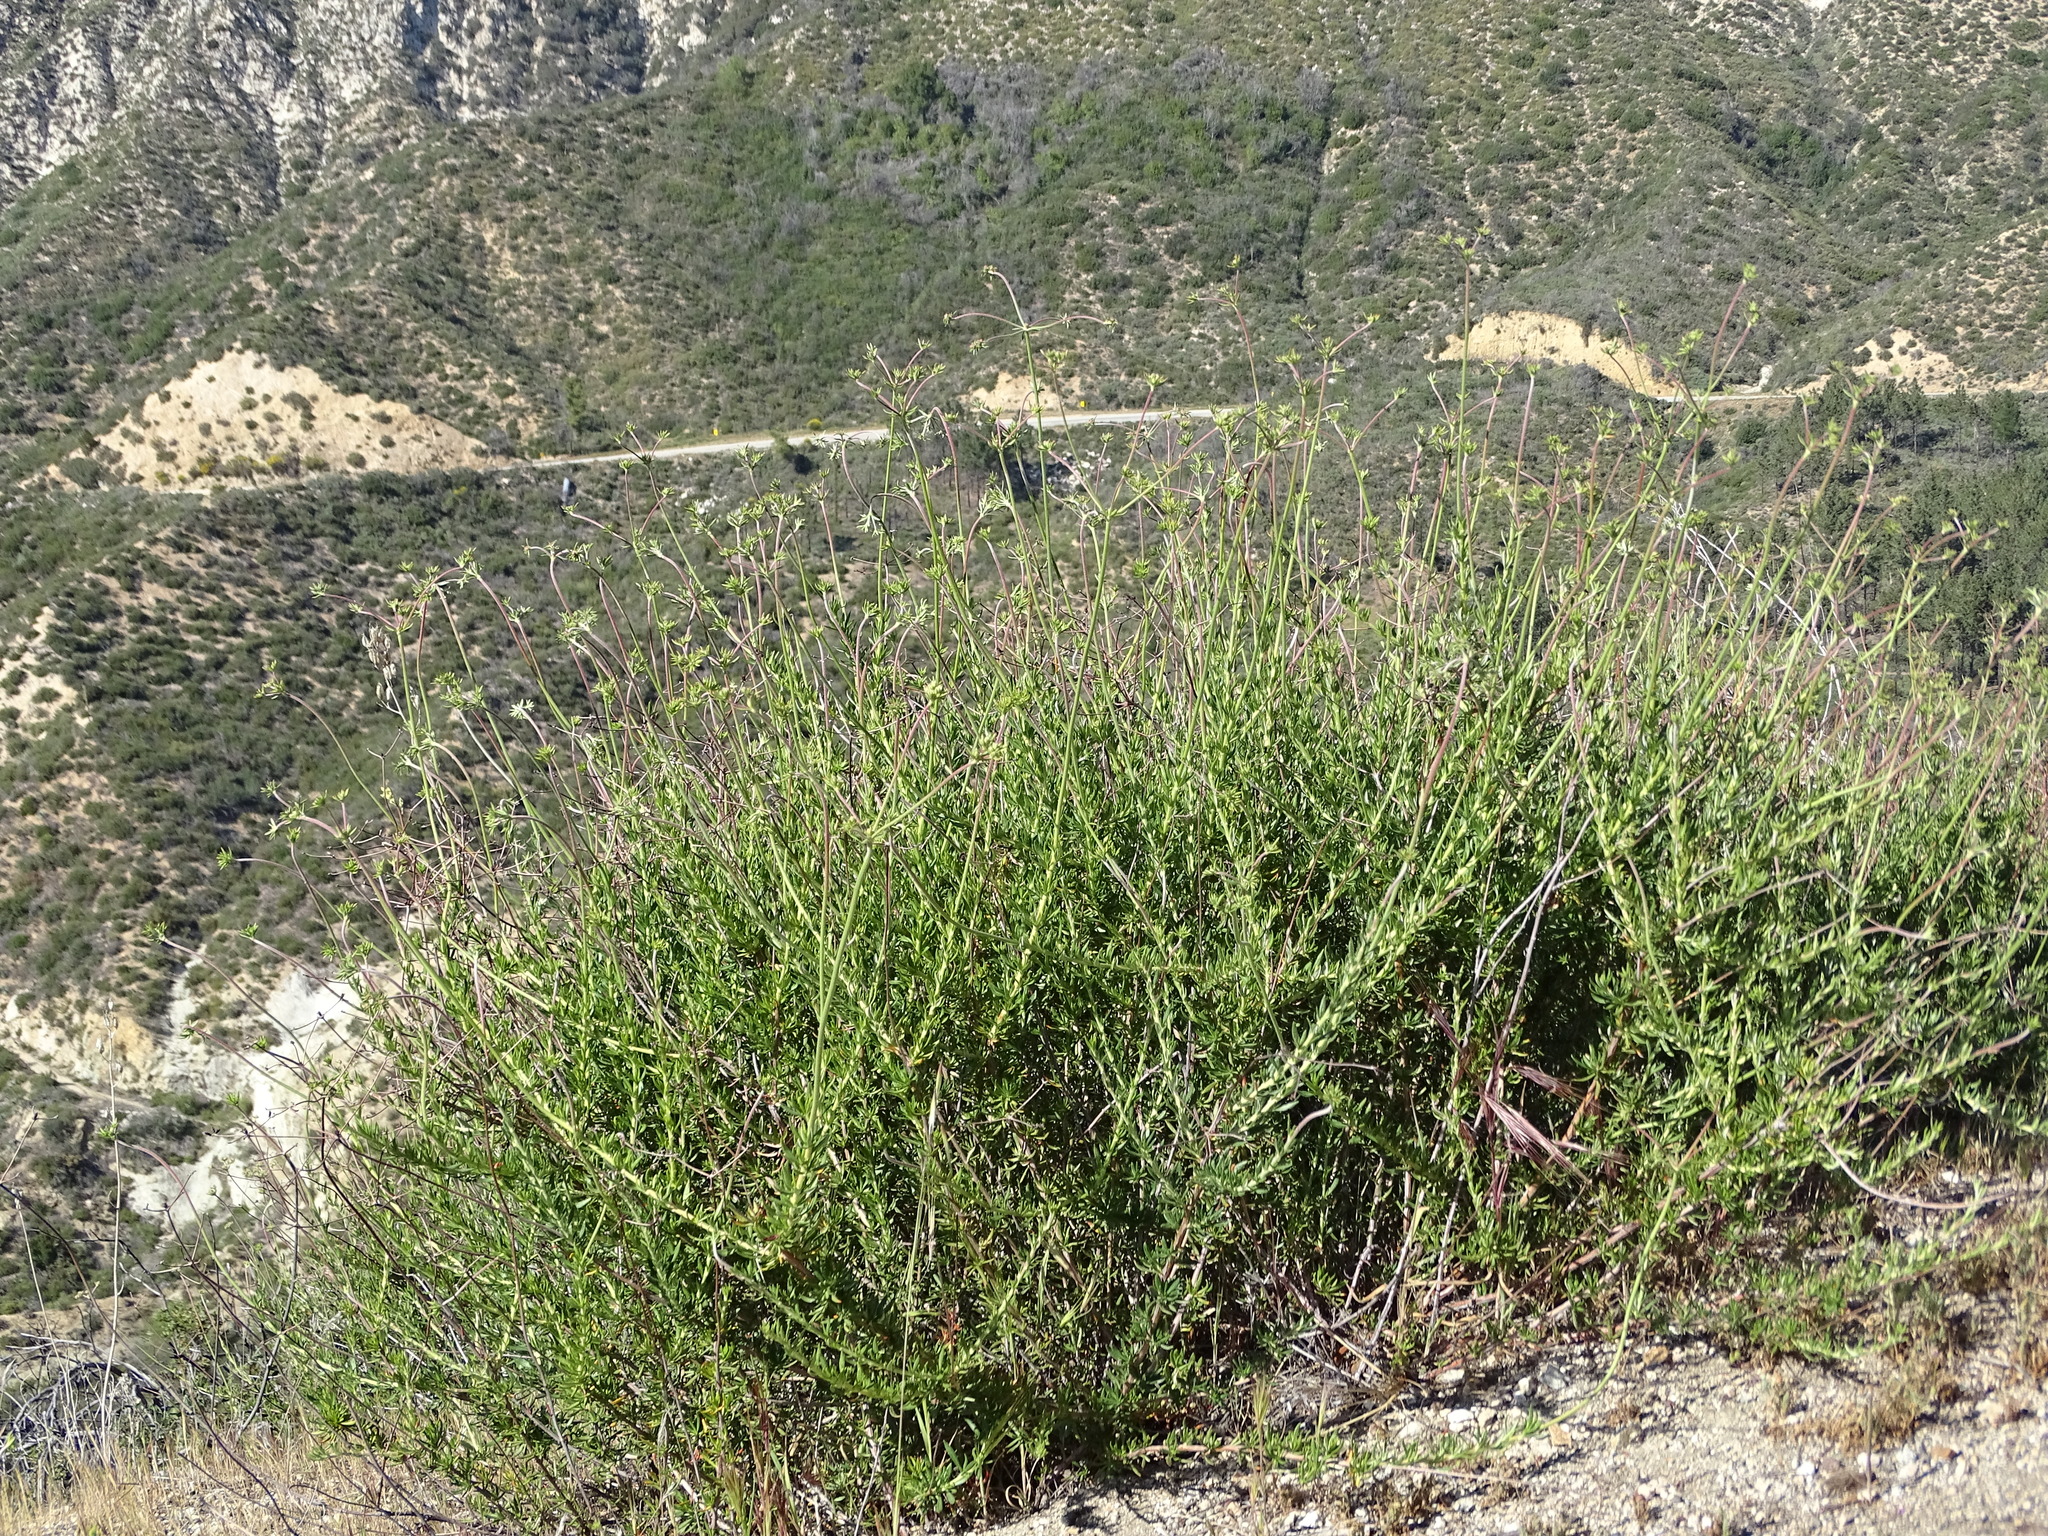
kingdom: Plantae
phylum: Tracheophyta
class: Magnoliopsida
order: Caryophyllales
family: Polygonaceae
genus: Eriogonum
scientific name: Eriogonum fasciculatum
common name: California wild buckwheat
